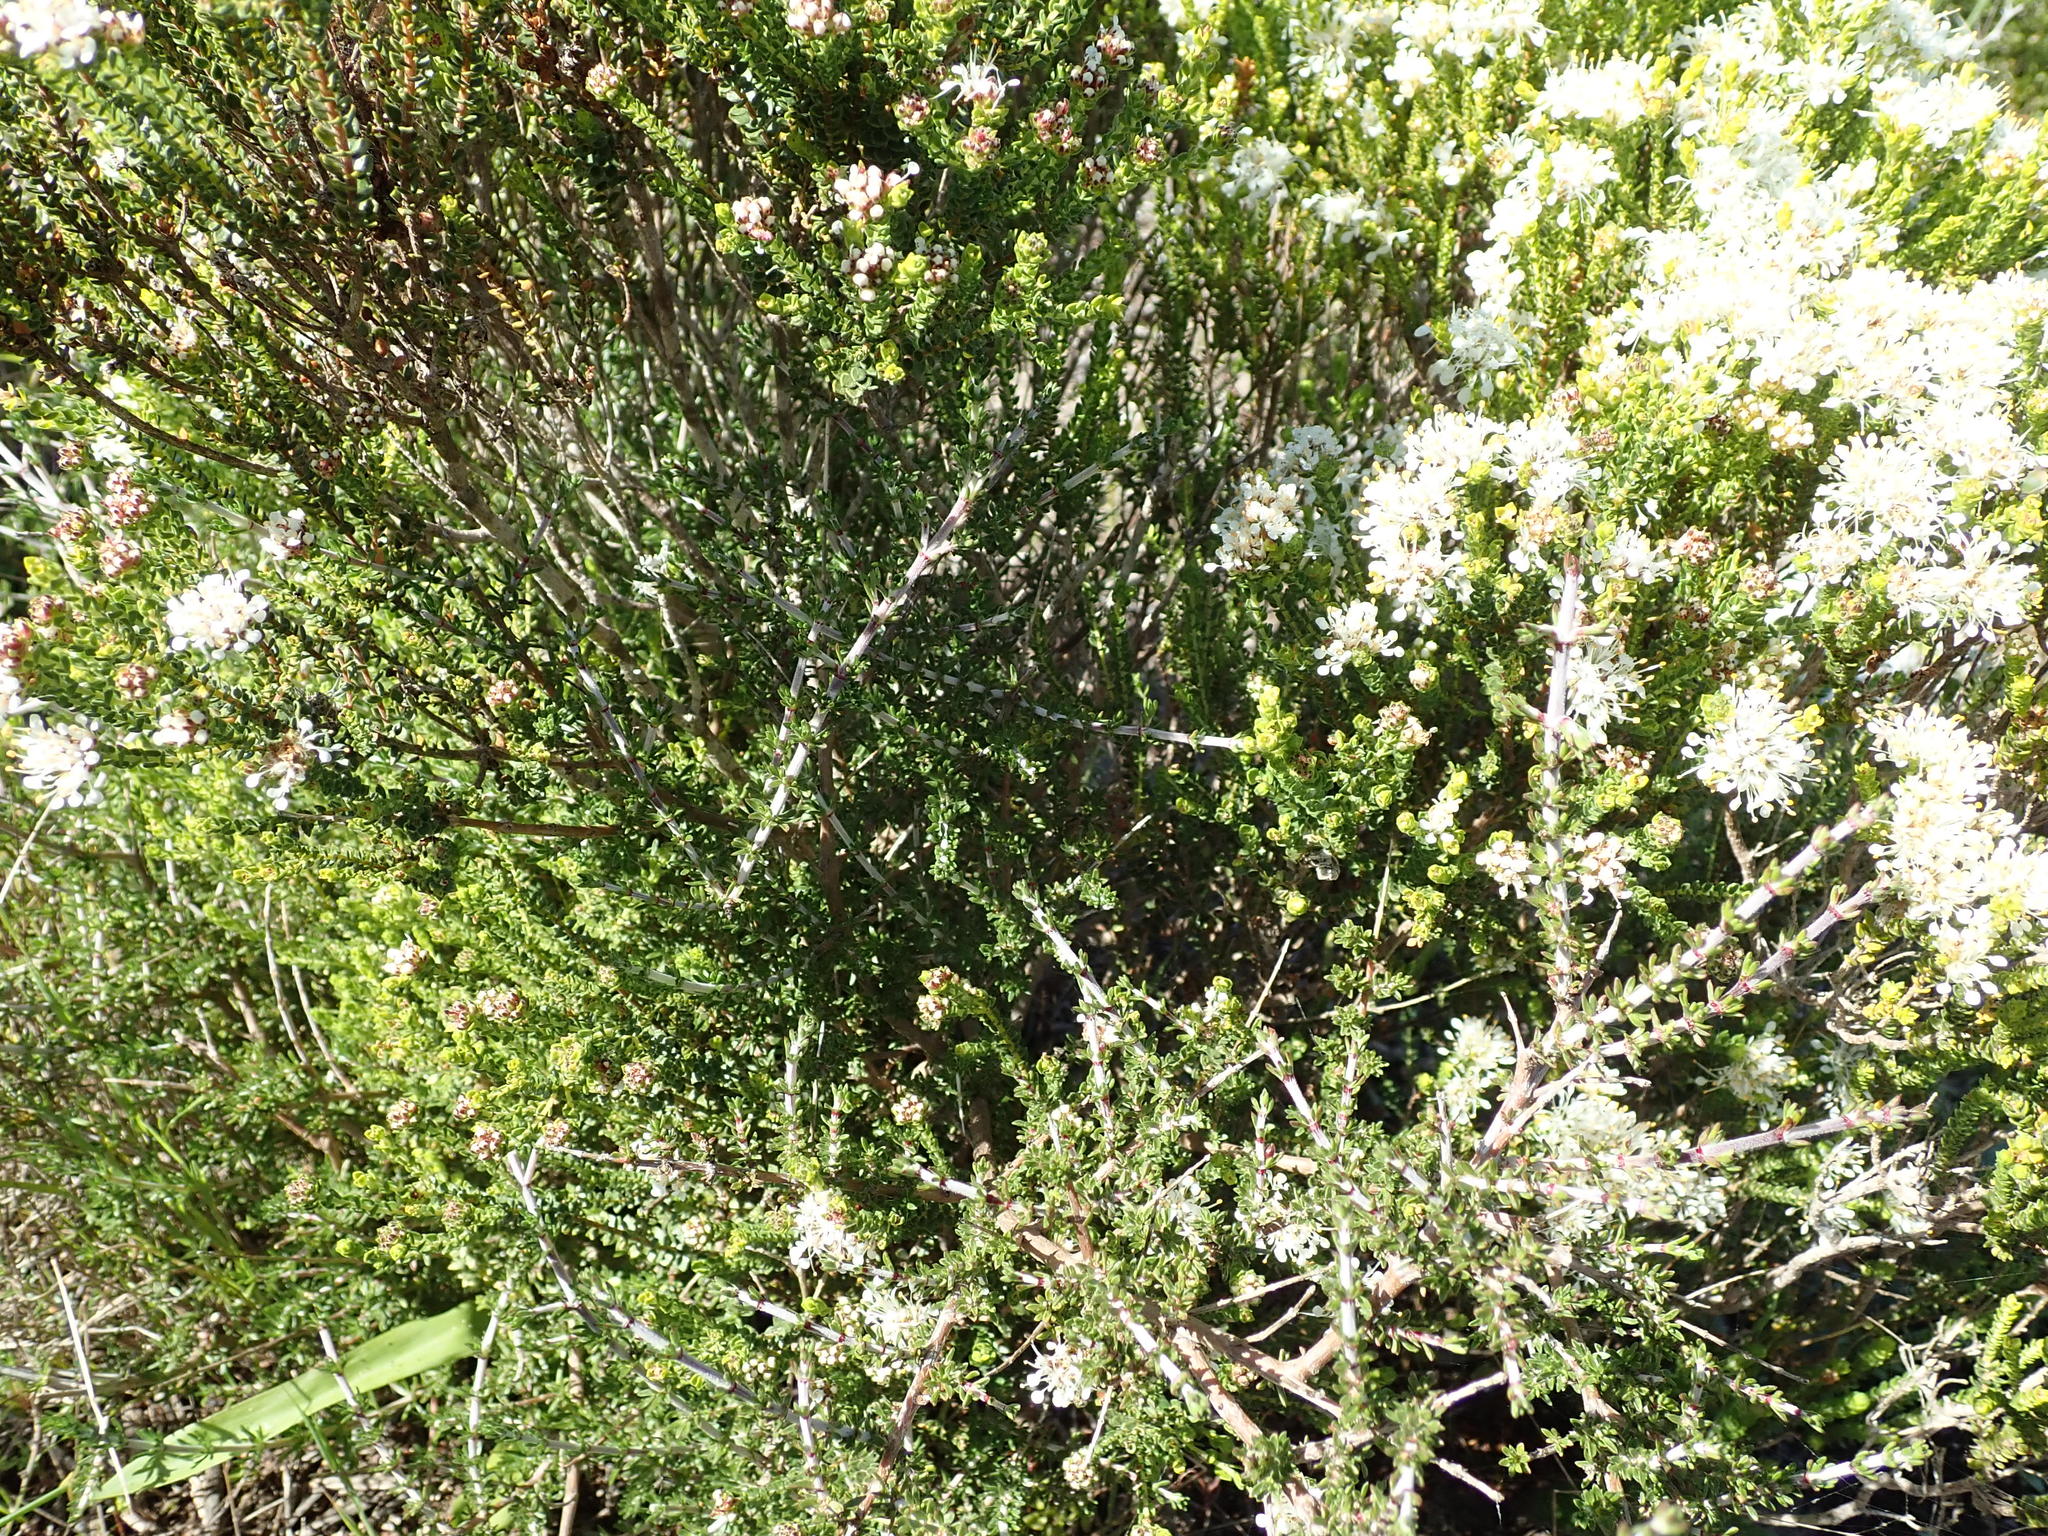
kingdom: Plantae
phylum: Tracheophyta
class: Magnoliopsida
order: Sapindales
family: Rutaceae
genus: Agathosma
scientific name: Agathosma imbricata
